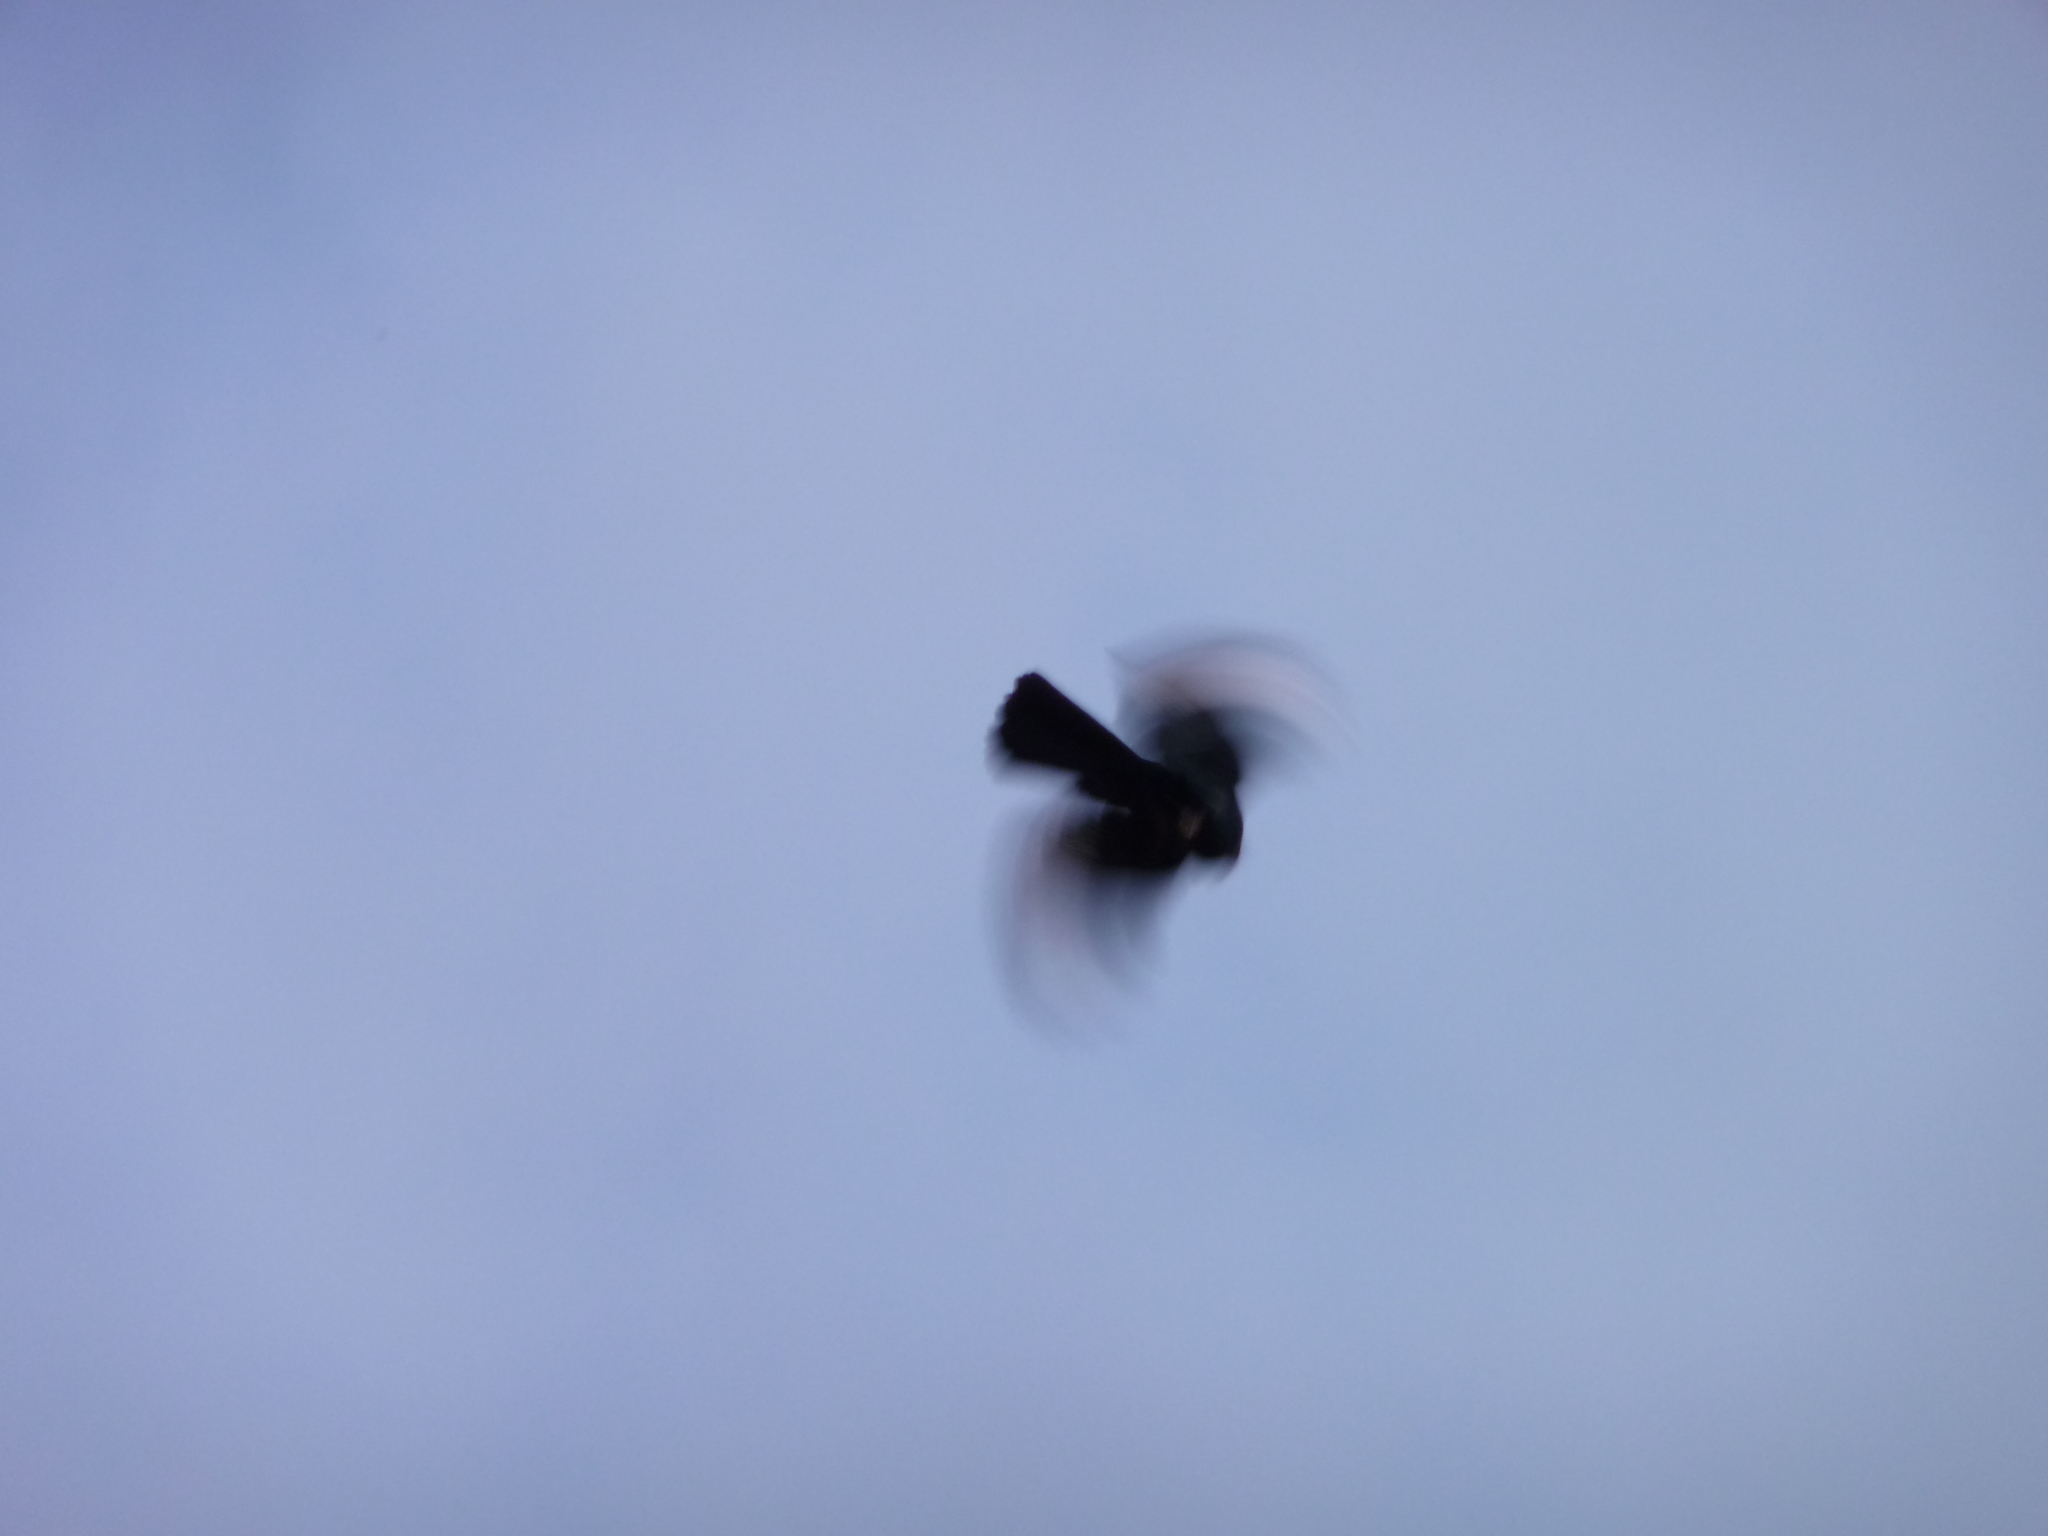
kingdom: Animalia
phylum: Chordata
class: Aves
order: Passeriformes
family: Ptilogonatidae
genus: Phainopepla
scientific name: Phainopepla nitens
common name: Phainopepla
